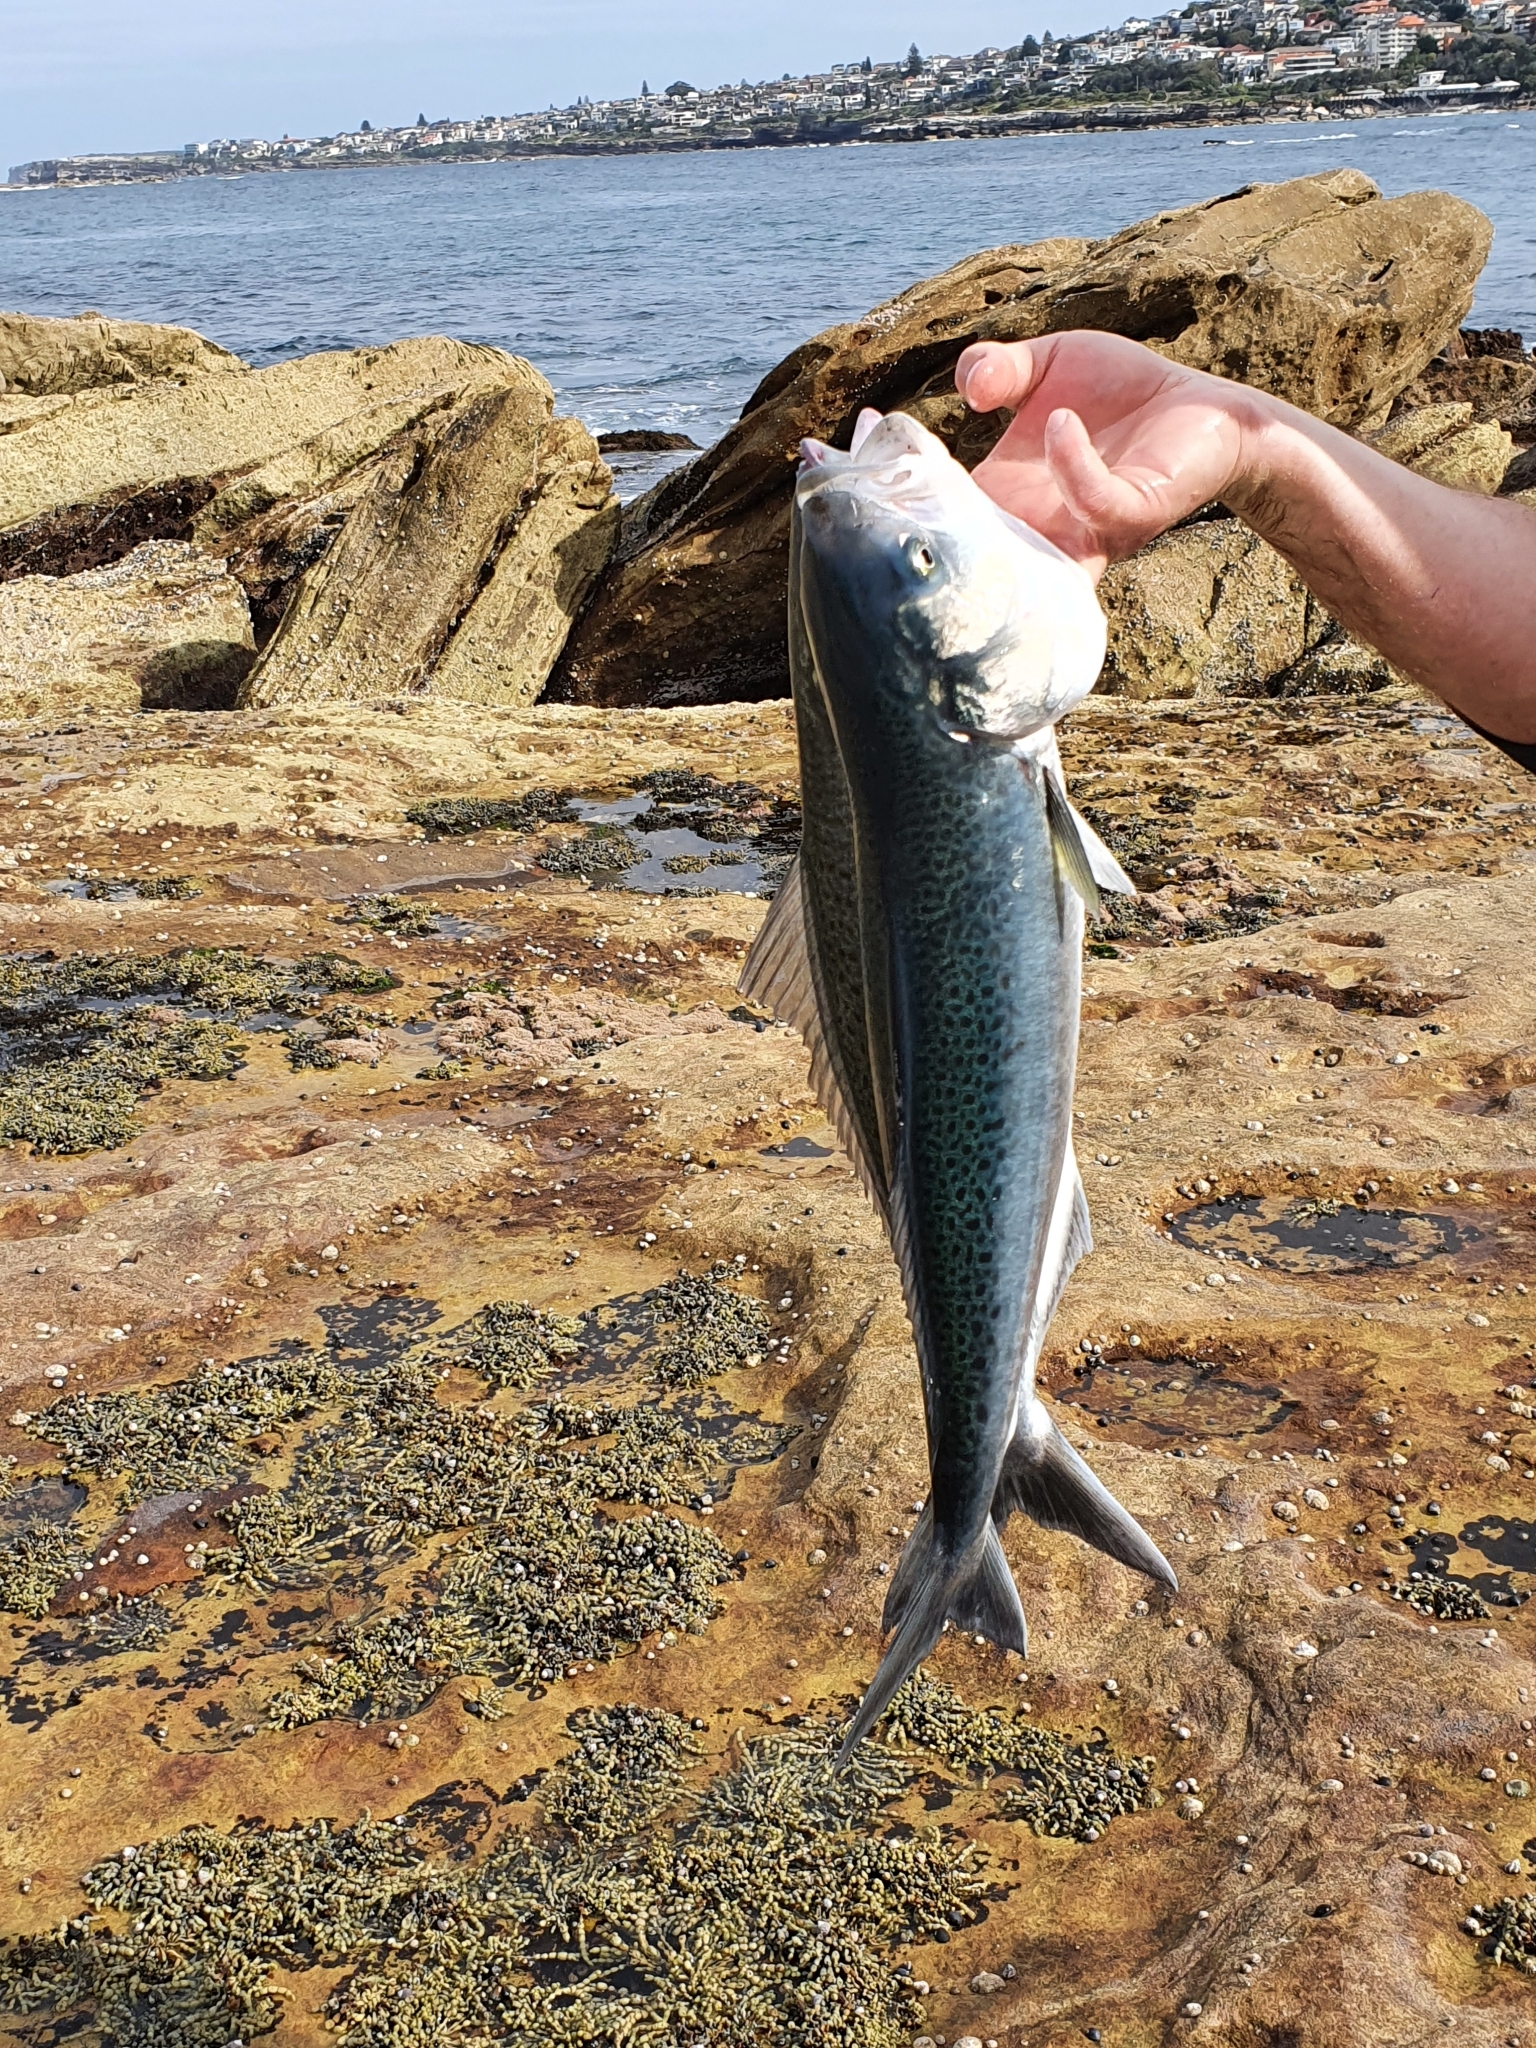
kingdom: Animalia
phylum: Chordata
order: Perciformes
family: Arripidae
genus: Arripis
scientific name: Arripis trutta
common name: Kahawai
